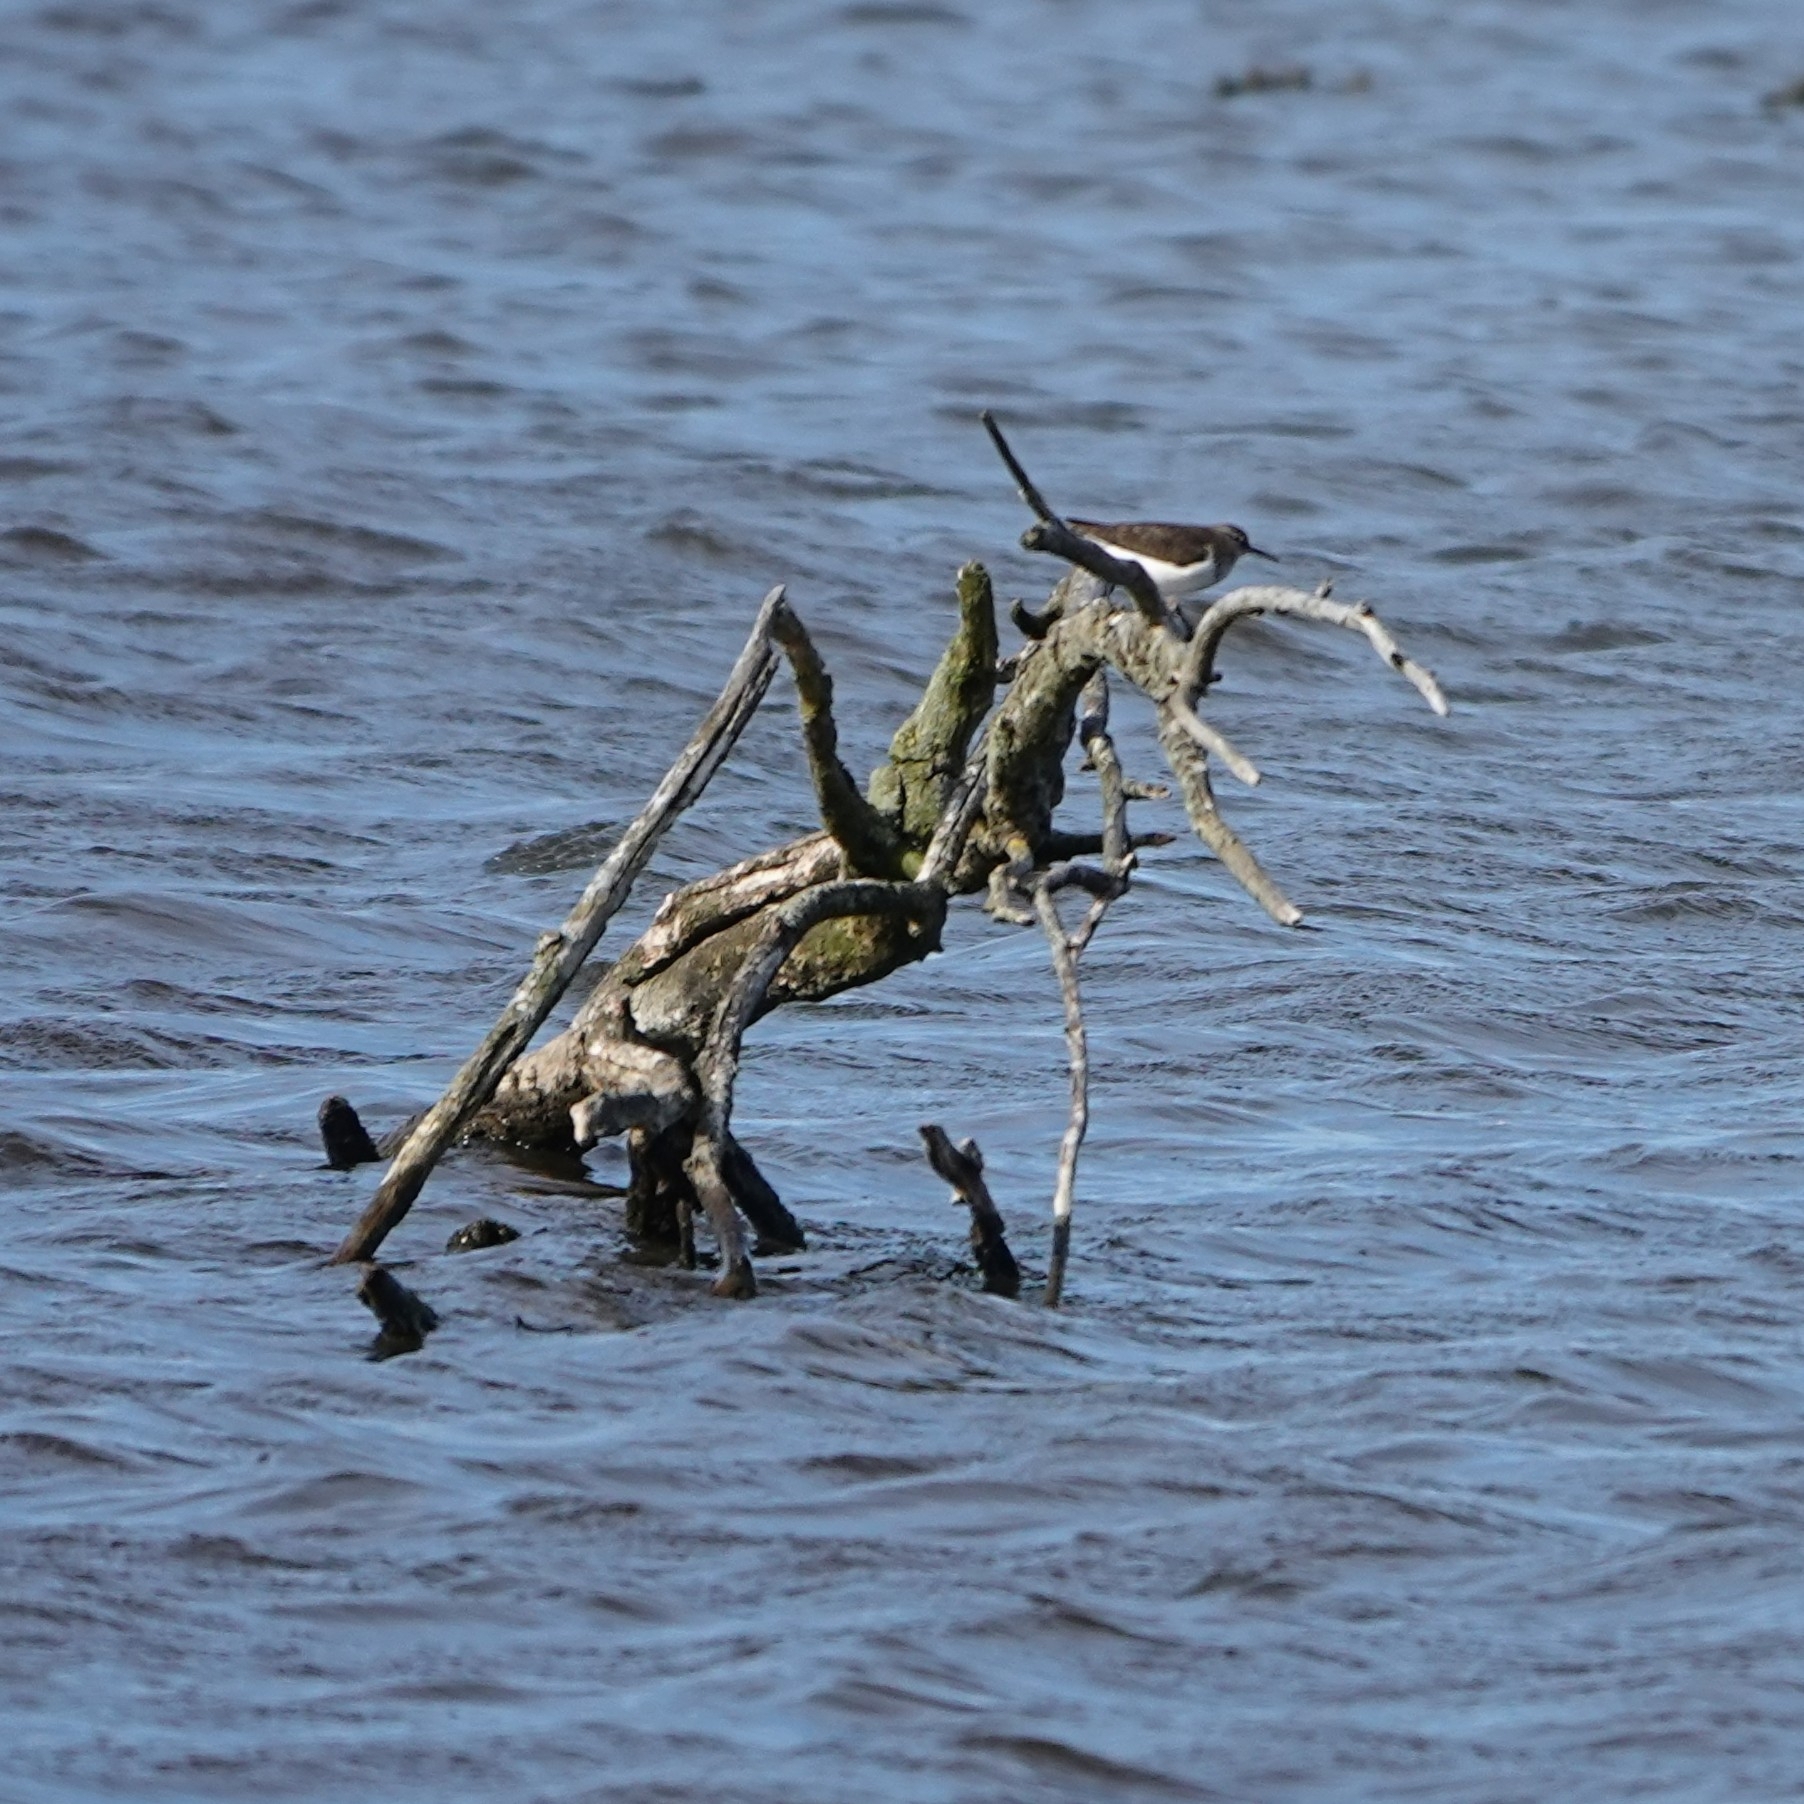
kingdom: Animalia
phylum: Chordata
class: Aves
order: Charadriiformes
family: Scolopacidae
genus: Actitis
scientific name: Actitis hypoleucos
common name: Common sandpiper
